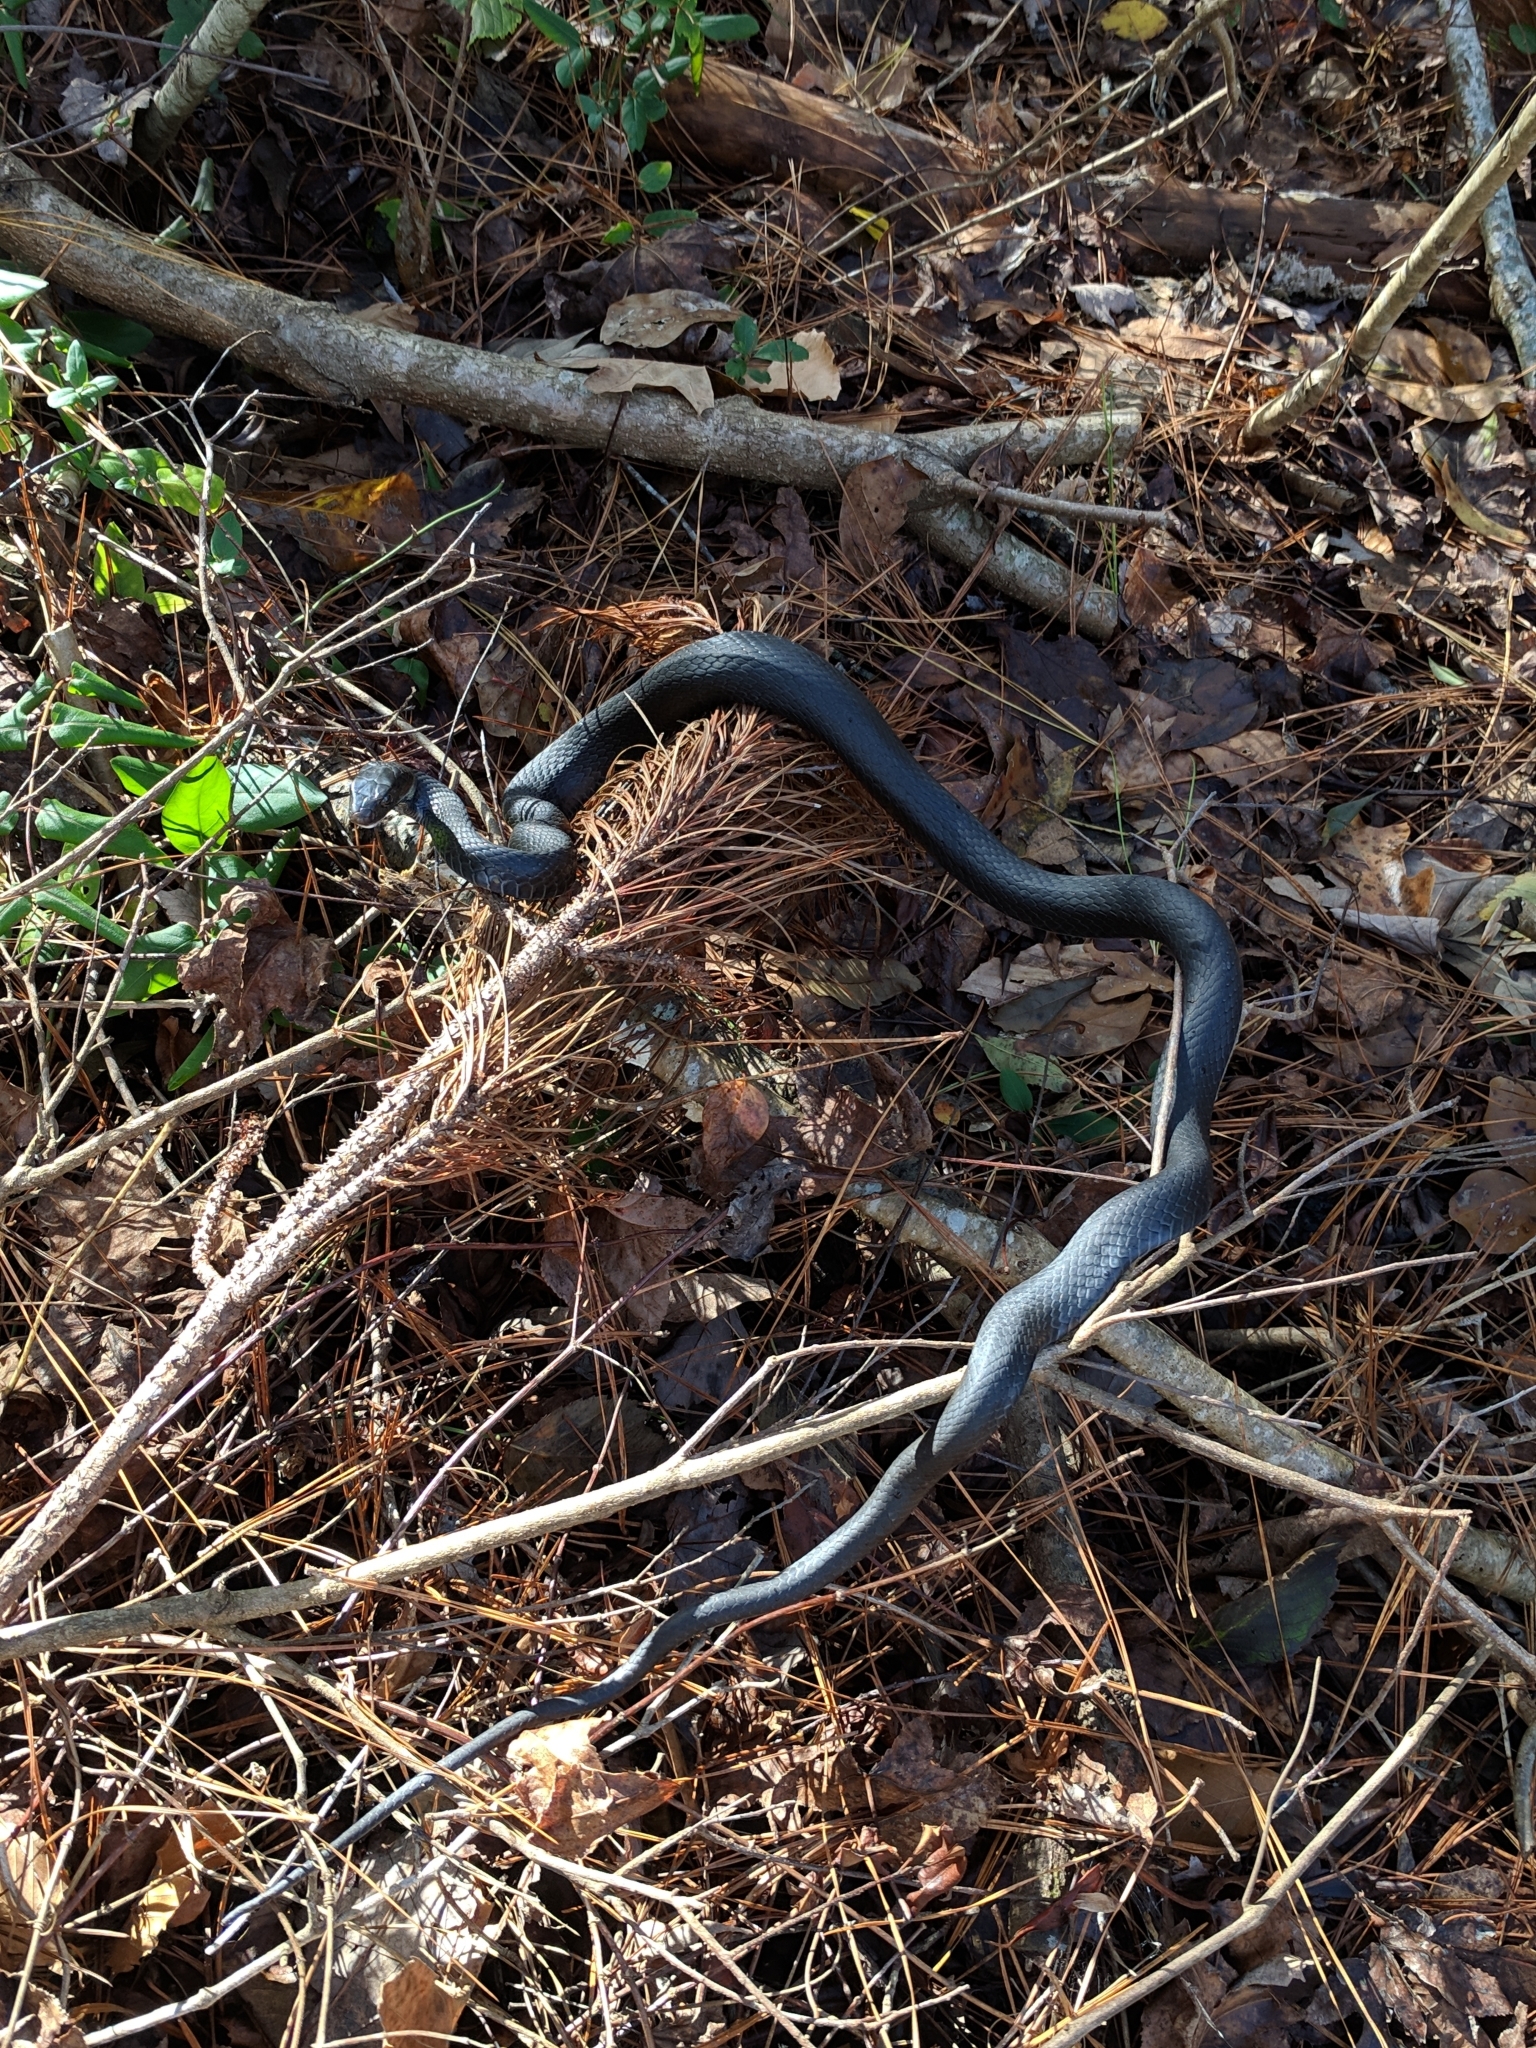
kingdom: Animalia
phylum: Chordata
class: Squamata
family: Colubridae
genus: Coluber
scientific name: Coluber constrictor
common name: Eastern racer
